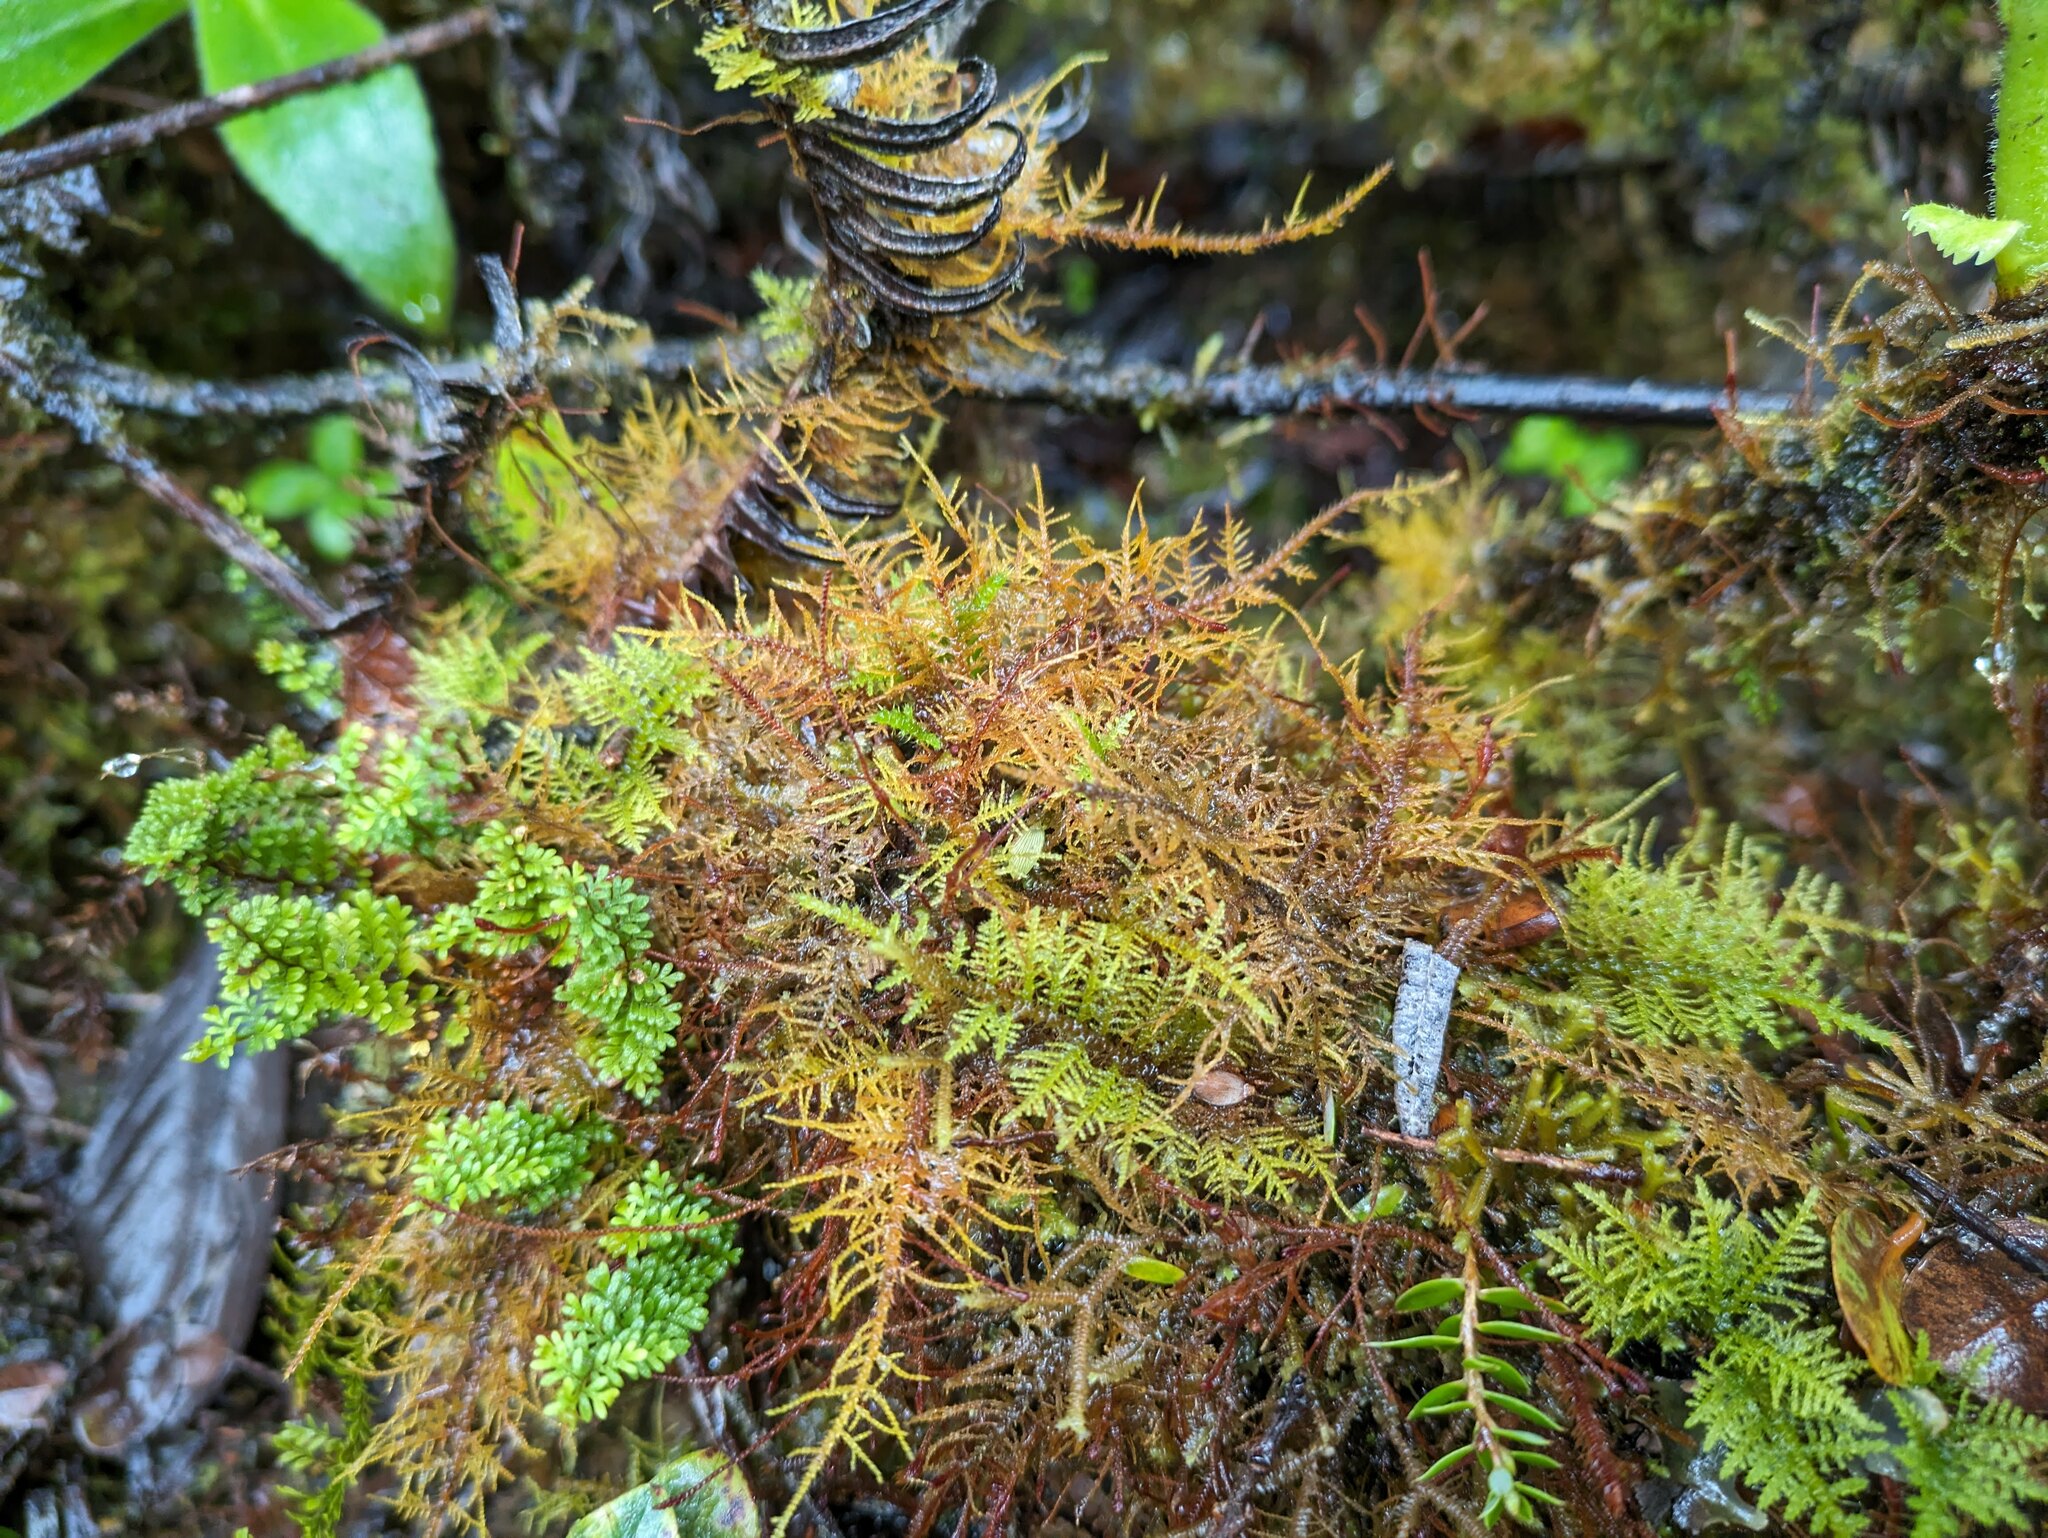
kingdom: Plantae
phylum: Bryophyta
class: Bryopsida
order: Hypnales
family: Thuidiaceae
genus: Thuidium
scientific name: Thuidium cymbifolium
